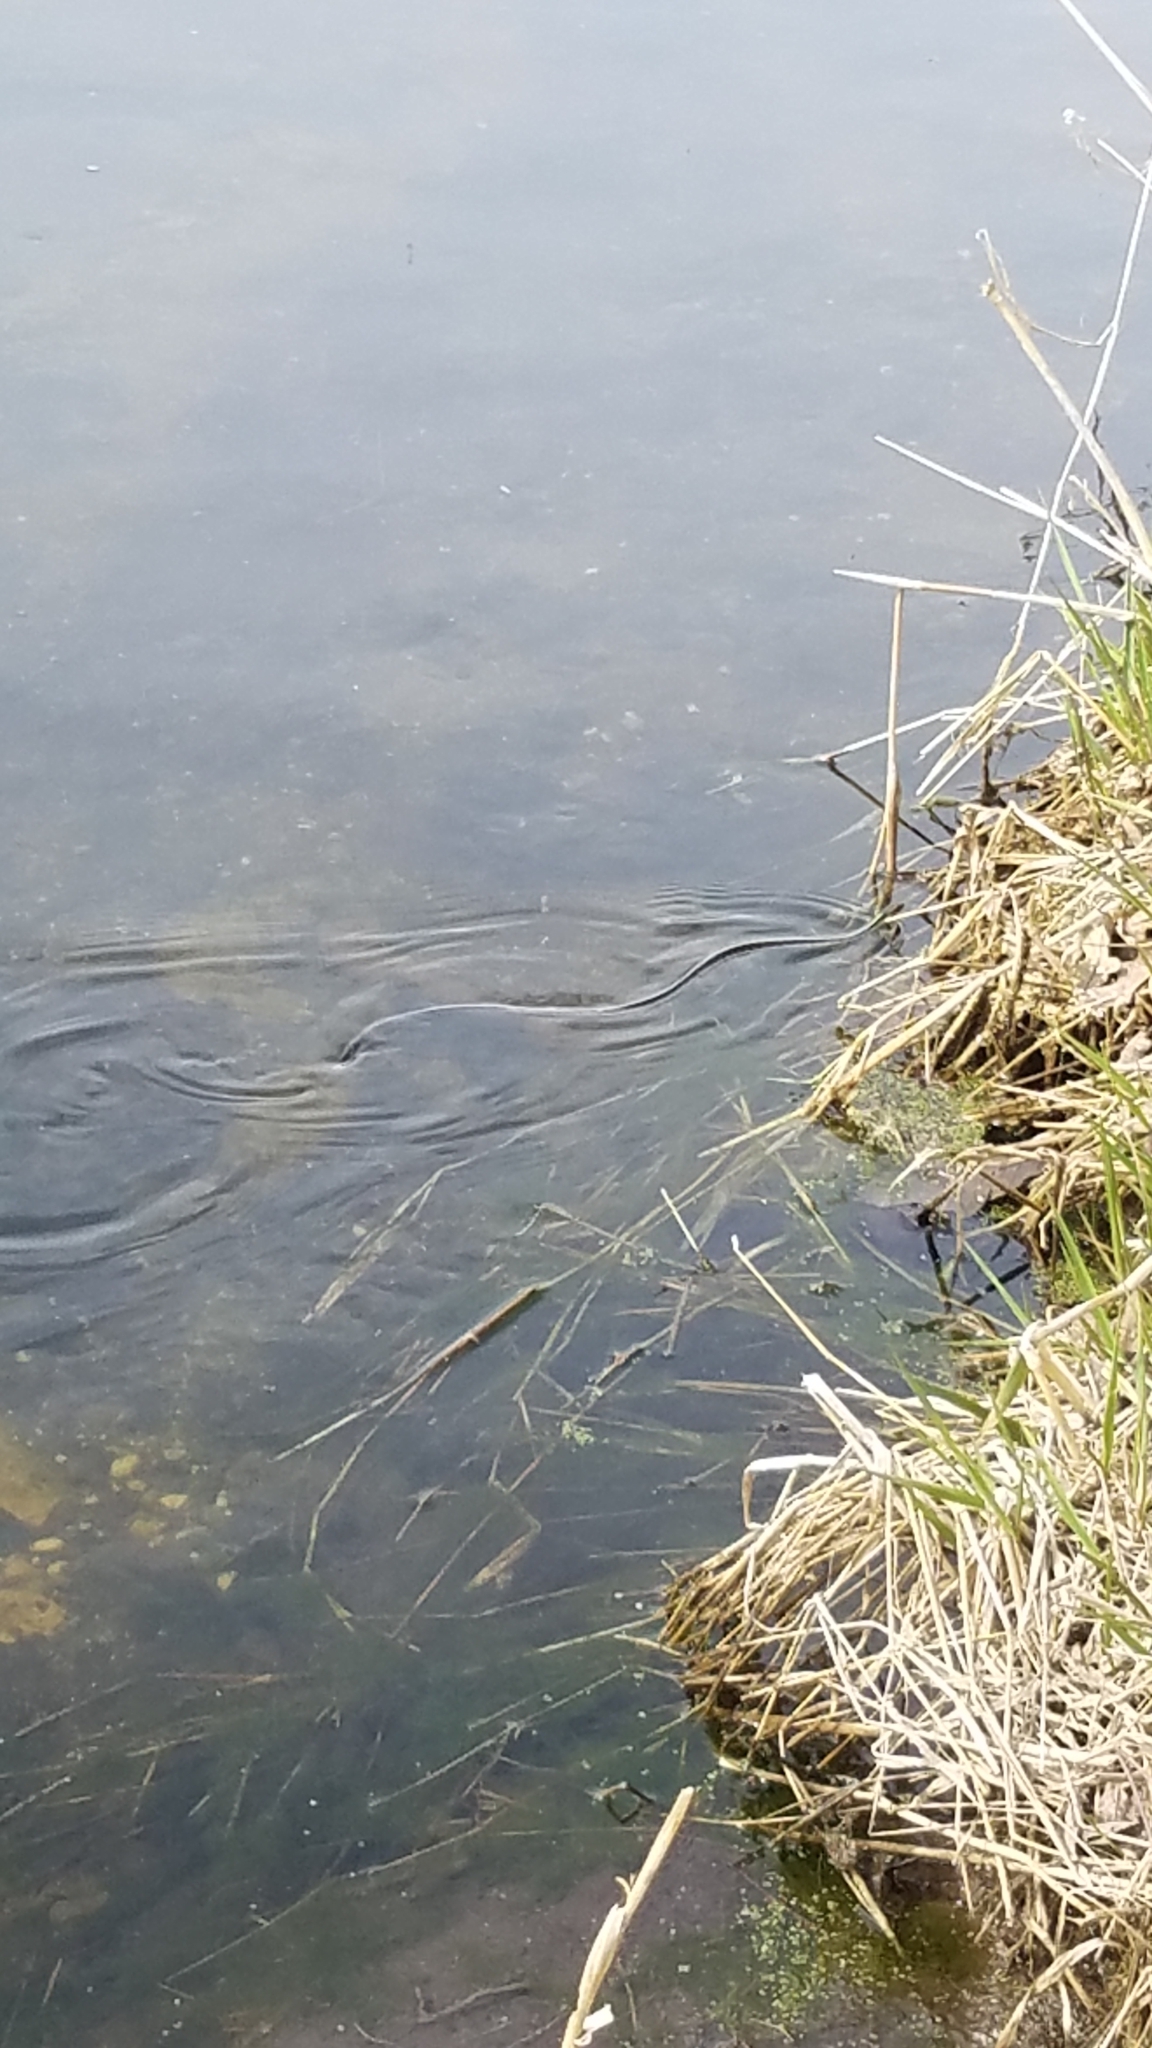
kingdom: Animalia
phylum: Chordata
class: Squamata
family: Colubridae
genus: Thamnophis
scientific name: Thamnophis sirtalis
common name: Common garter snake
